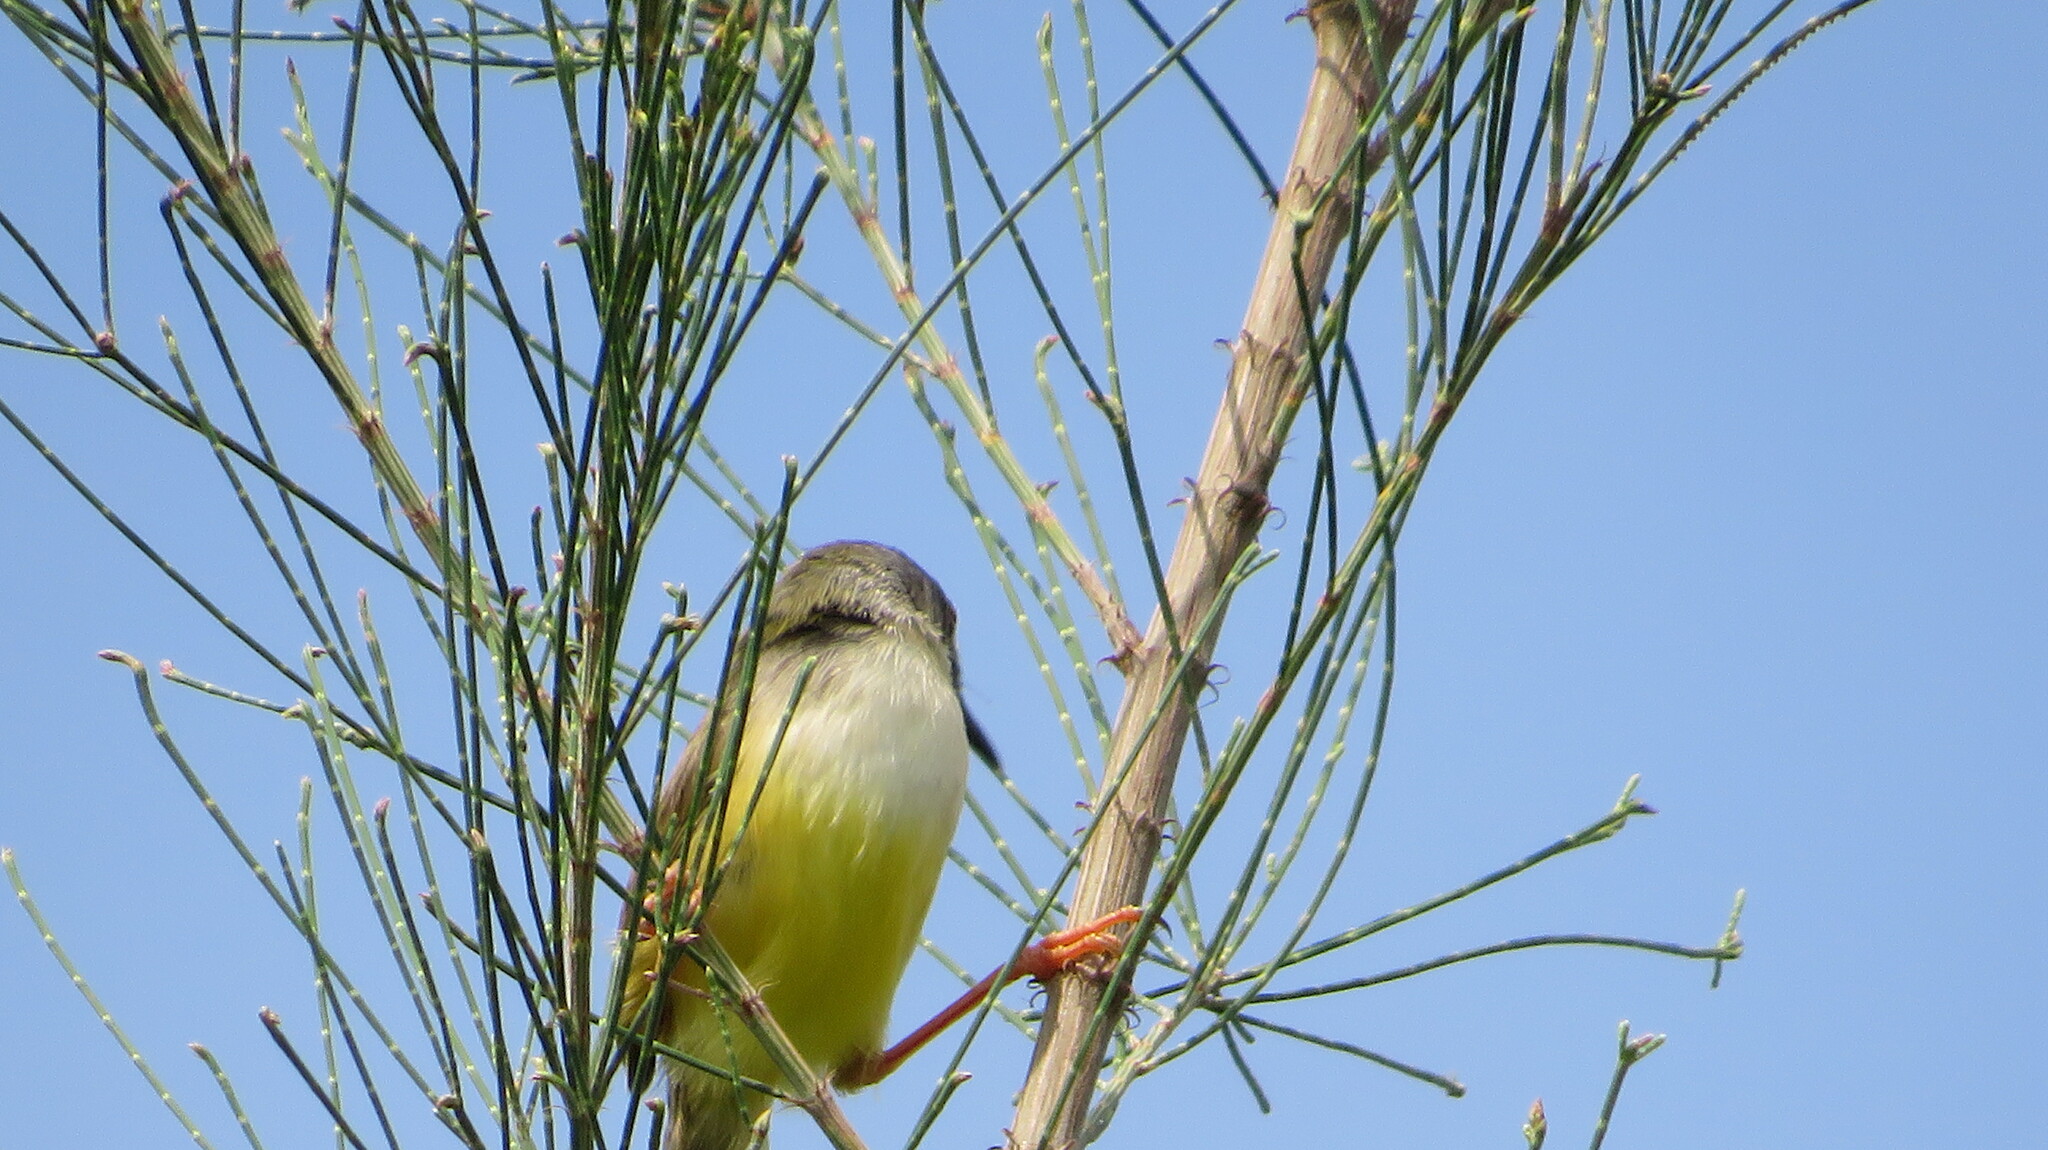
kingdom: Animalia
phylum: Chordata
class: Aves
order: Passeriformes
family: Cisticolidae
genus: Prinia
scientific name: Prinia flaviventris
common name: Yellow-bellied prinia
